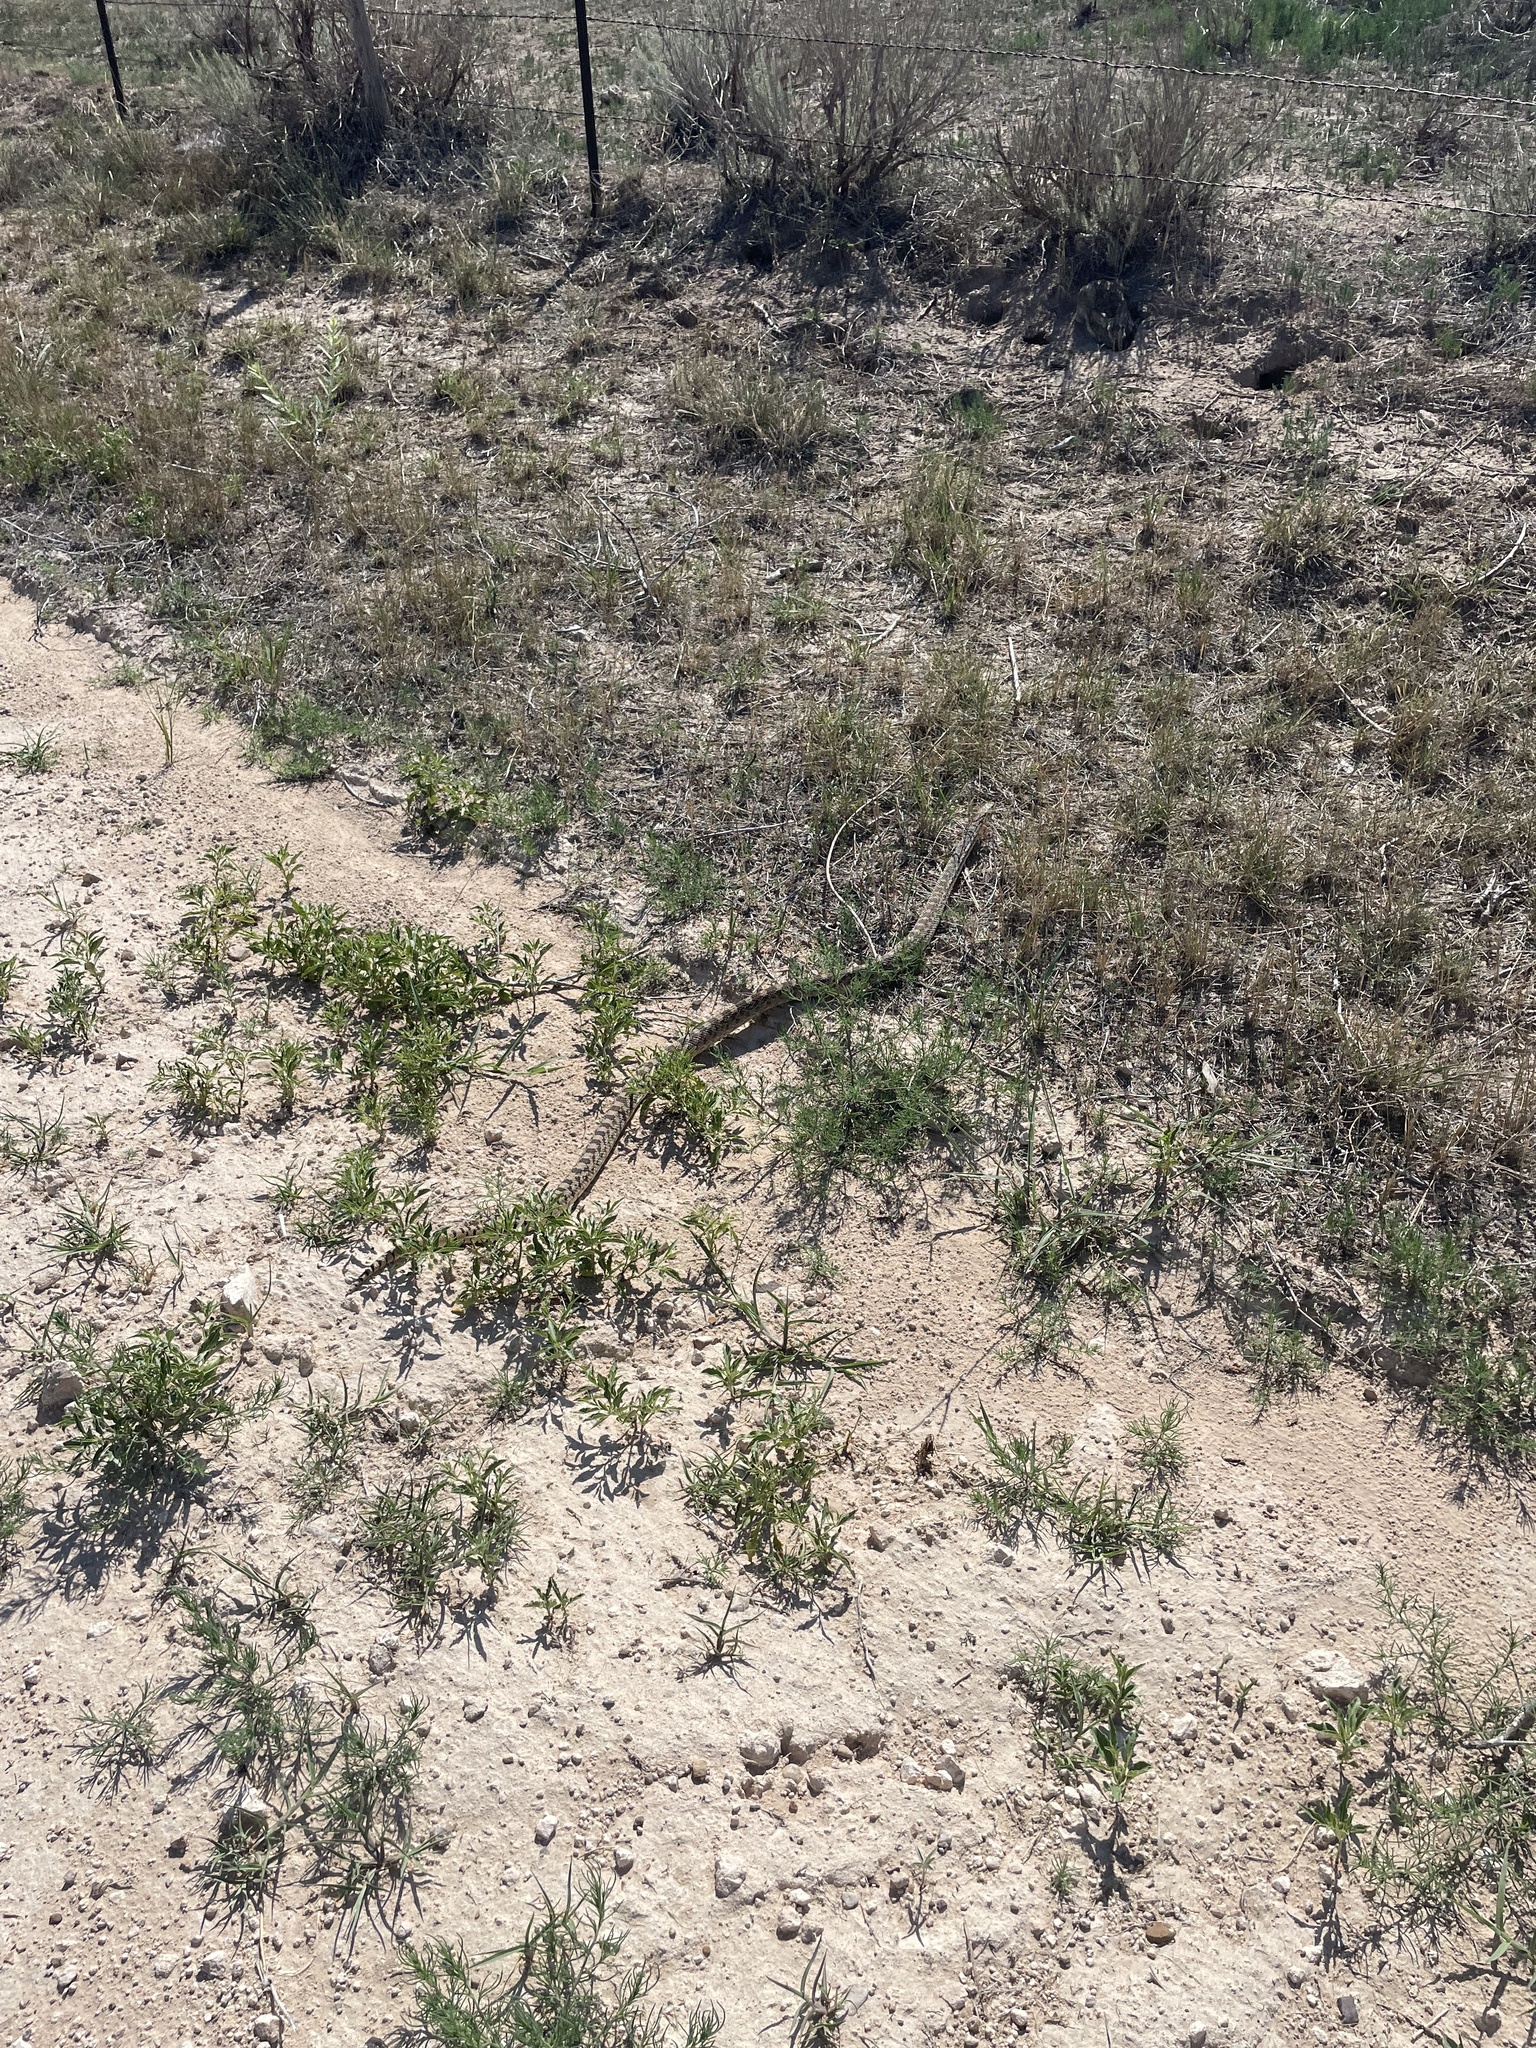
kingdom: Animalia
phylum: Chordata
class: Squamata
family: Colubridae
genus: Pituophis
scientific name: Pituophis catenifer
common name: Gopher snake
